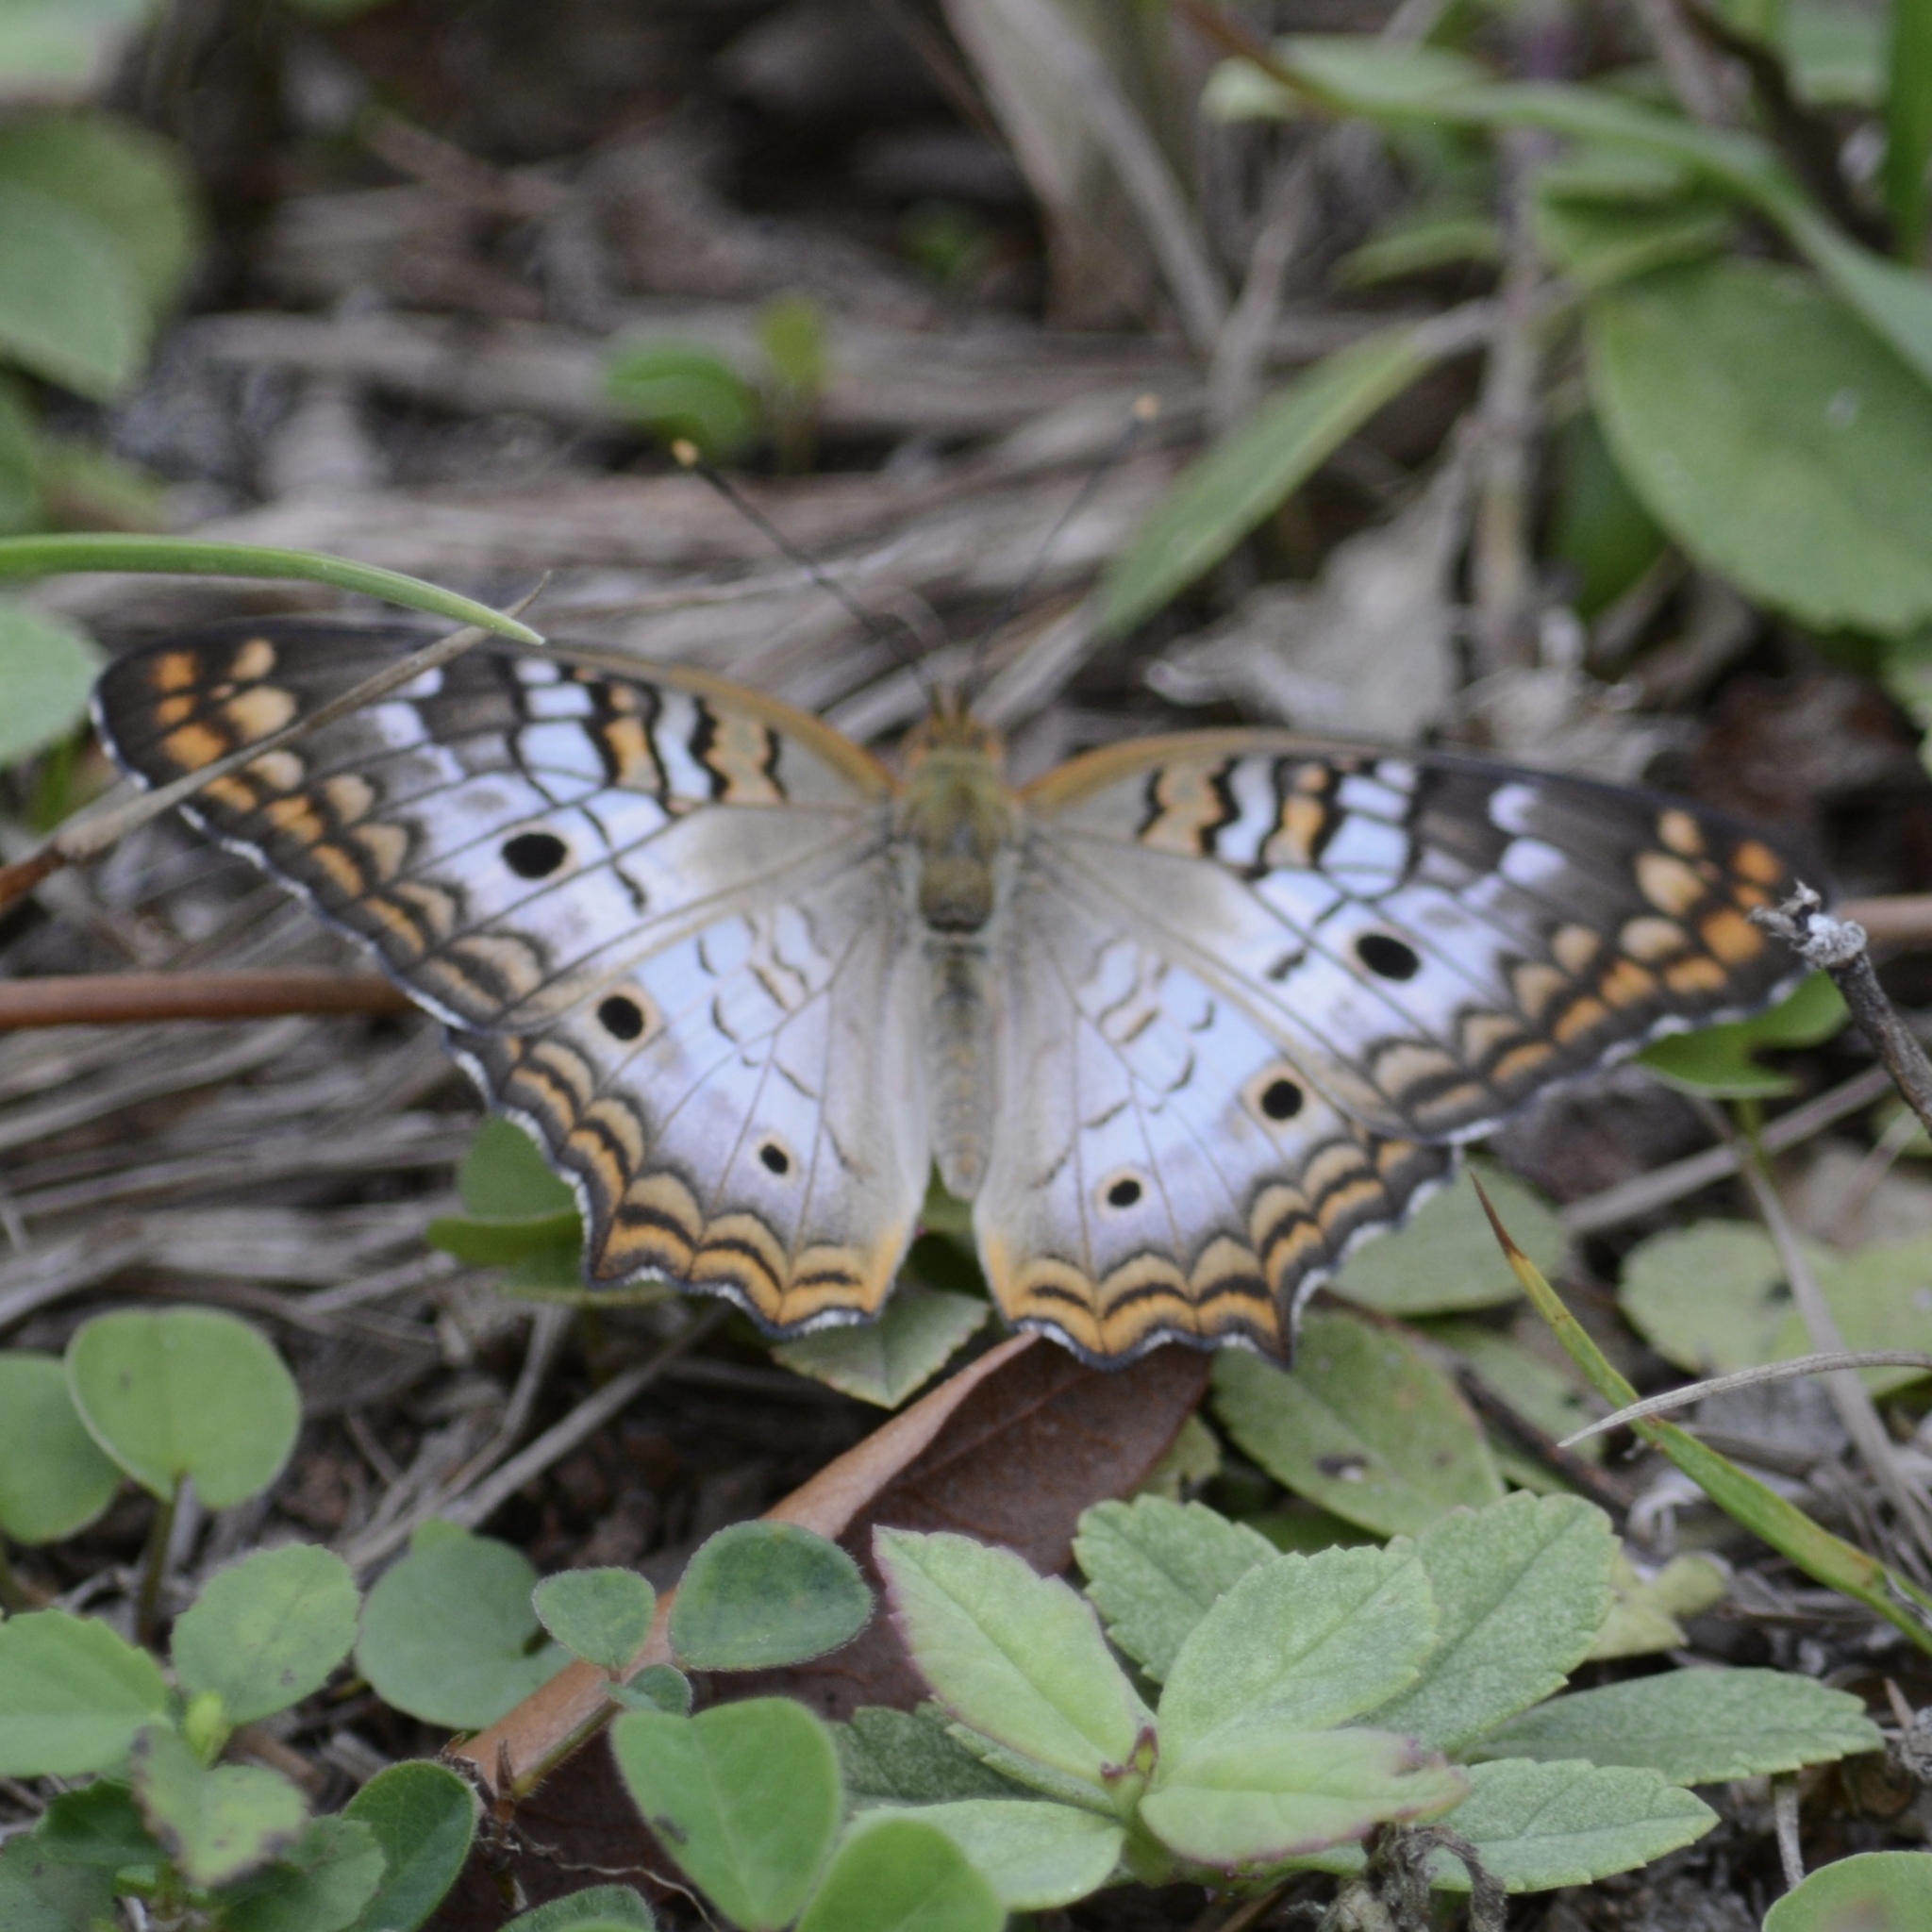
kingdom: Animalia
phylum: Arthropoda
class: Insecta
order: Lepidoptera
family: Nymphalidae
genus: Anartia
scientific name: Anartia jatrophae
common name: White peacock
